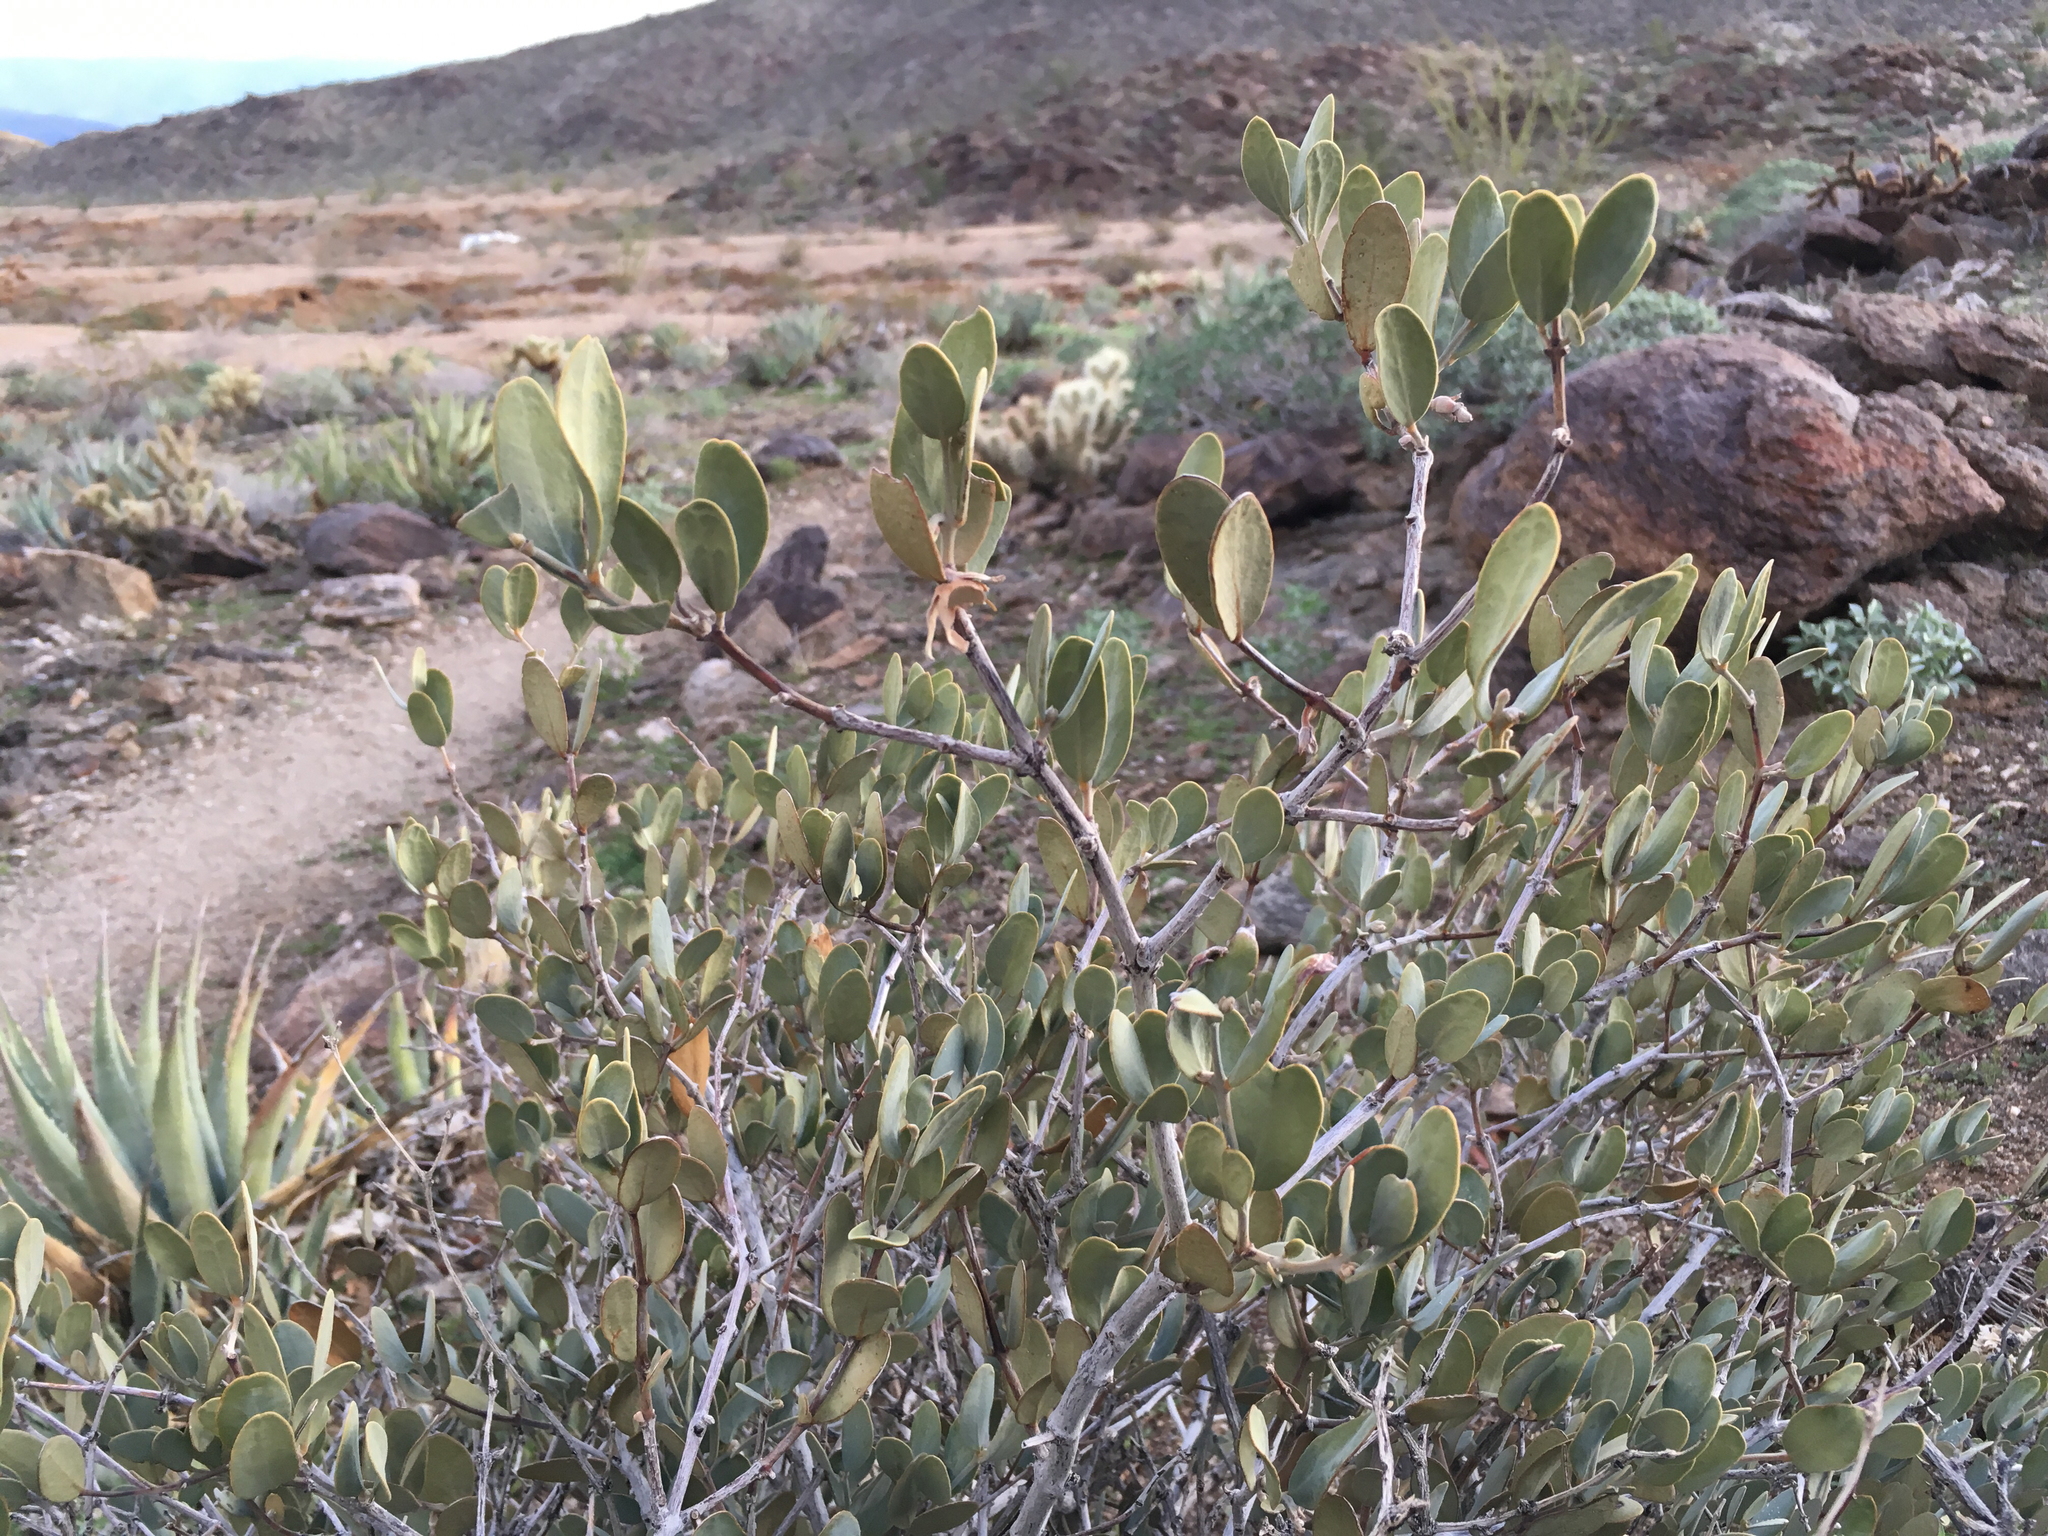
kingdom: Plantae
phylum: Tracheophyta
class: Magnoliopsida
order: Caryophyllales
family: Simmondsiaceae
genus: Simmondsia
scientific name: Simmondsia chinensis
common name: Jojoba
